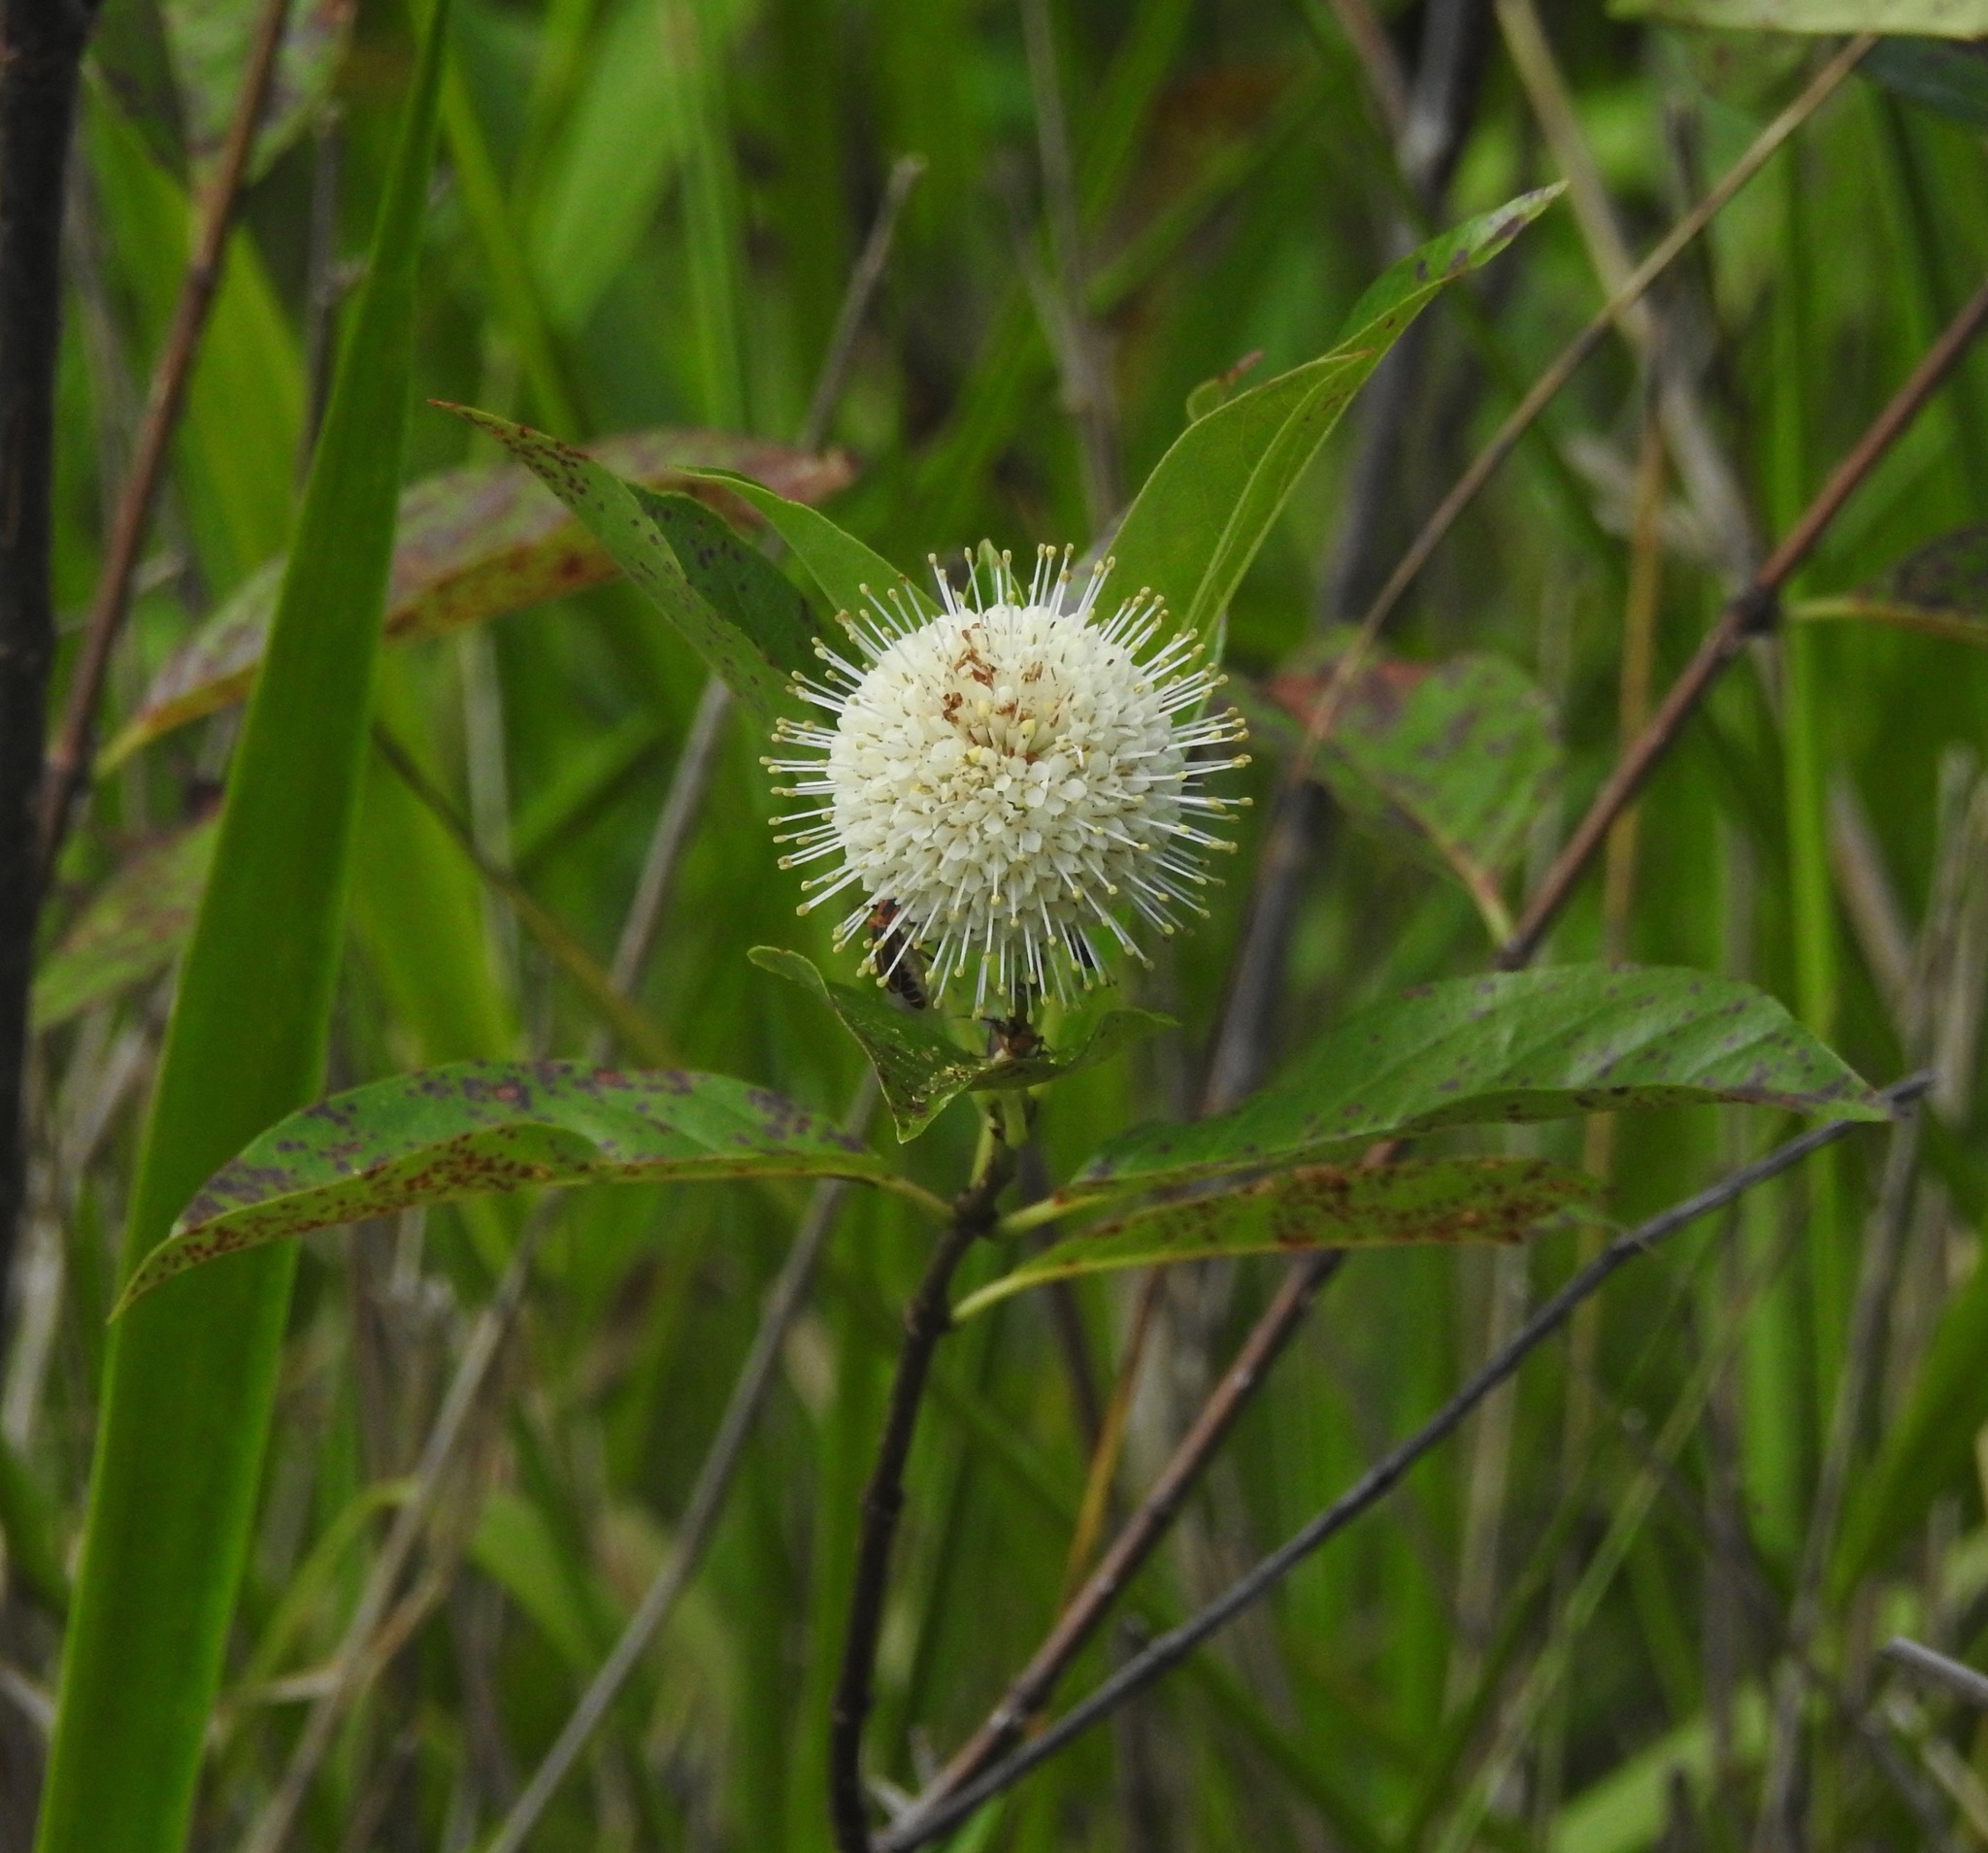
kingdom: Plantae
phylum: Tracheophyta
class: Magnoliopsida
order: Gentianales
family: Rubiaceae
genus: Cephalanthus
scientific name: Cephalanthus occidentalis
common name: Button-willow
